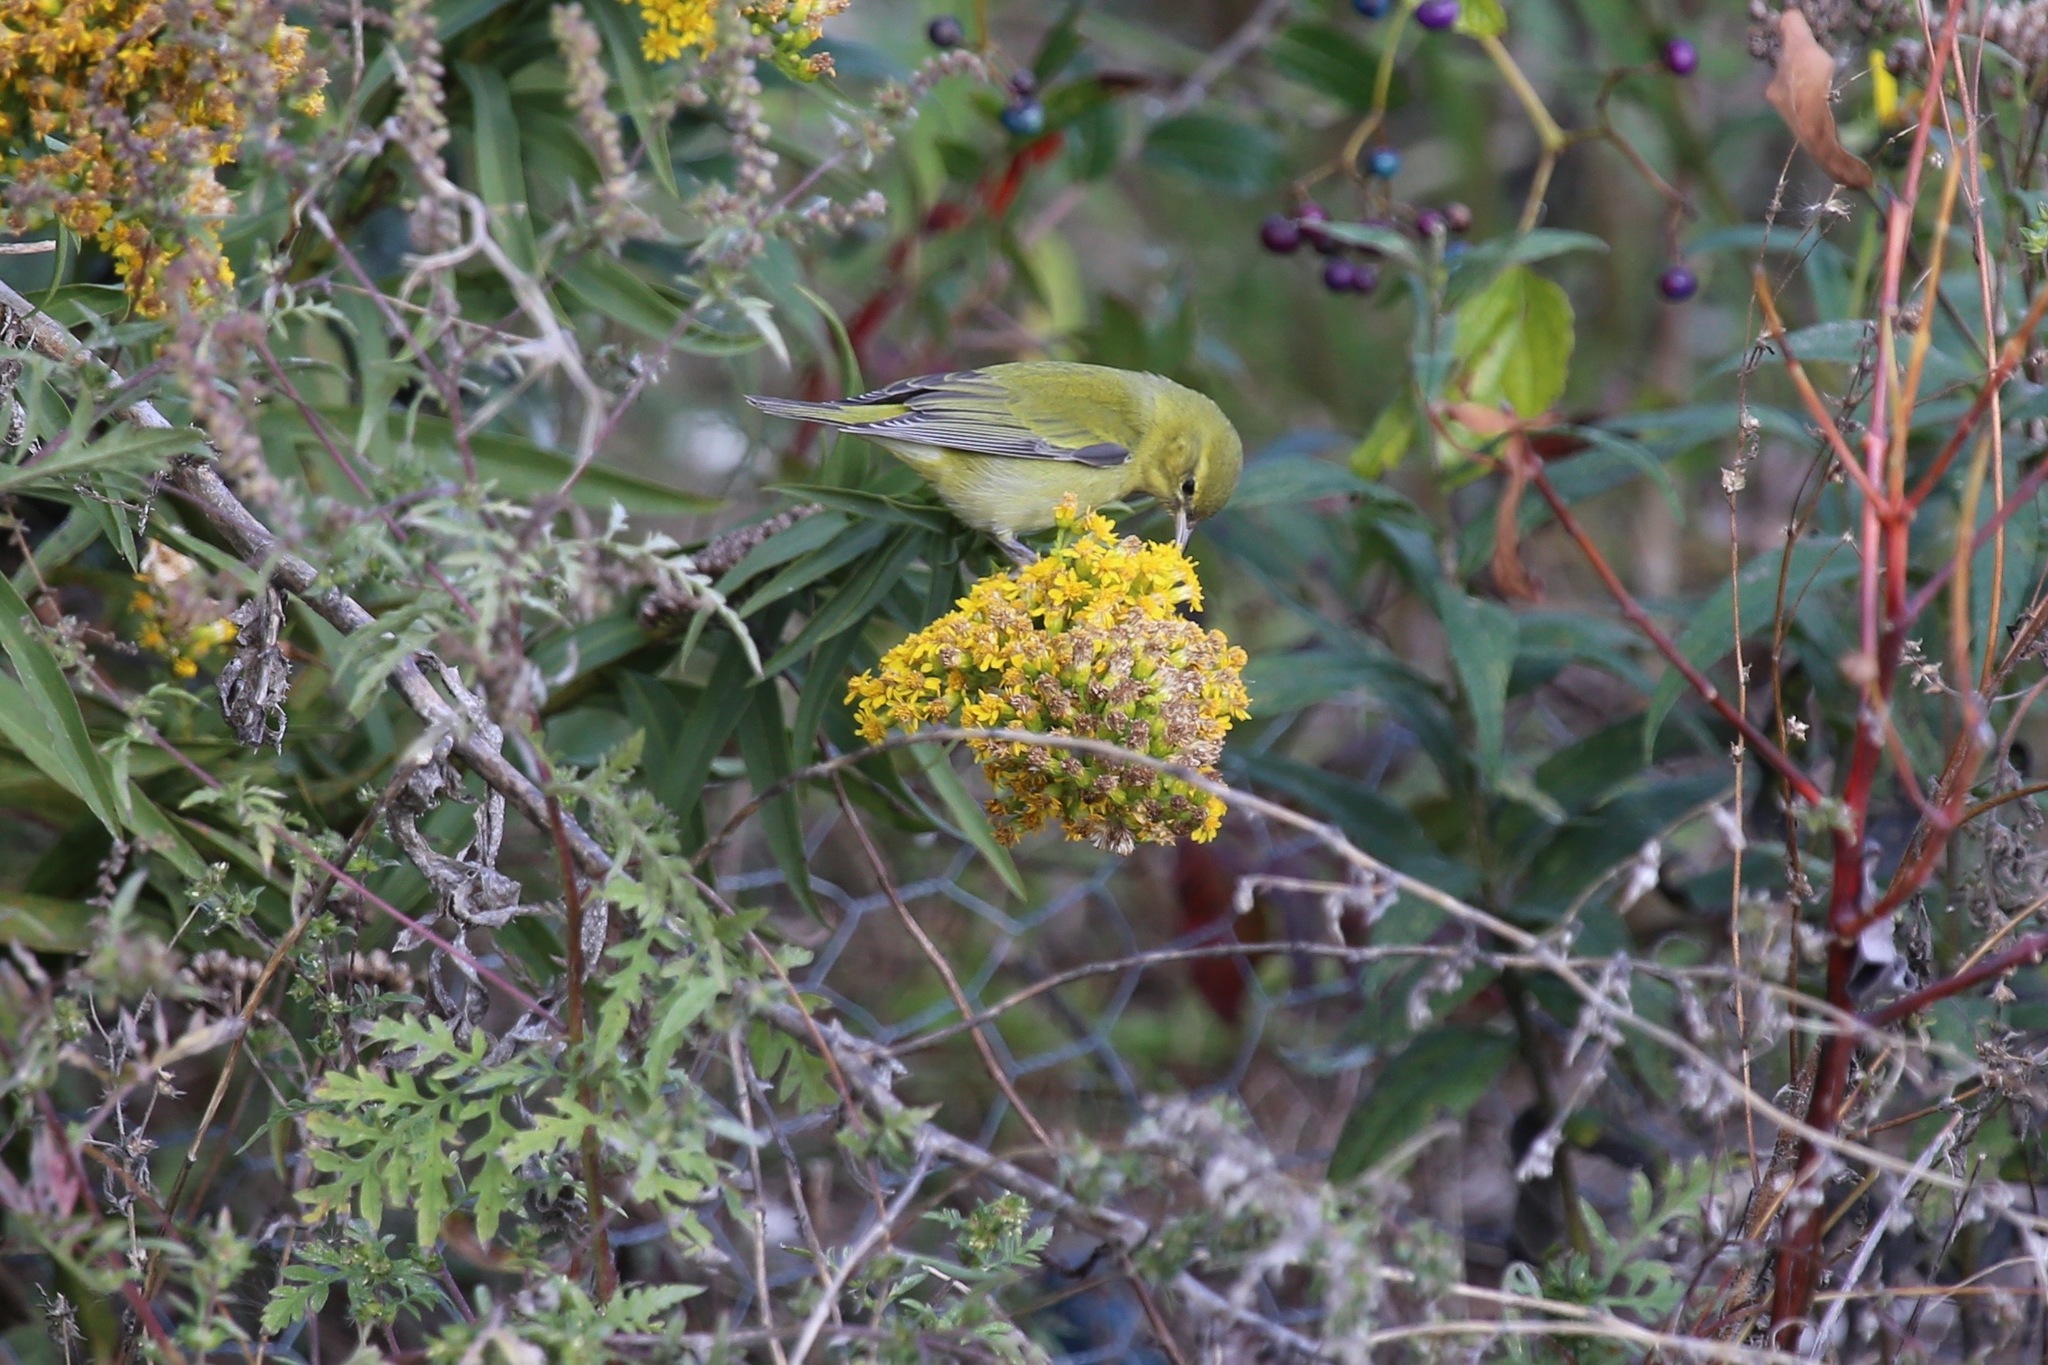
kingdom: Animalia
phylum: Chordata
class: Aves
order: Passeriformes
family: Parulidae
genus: Leiothlypis
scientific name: Leiothlypis peregrina
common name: Tennessee warbler
